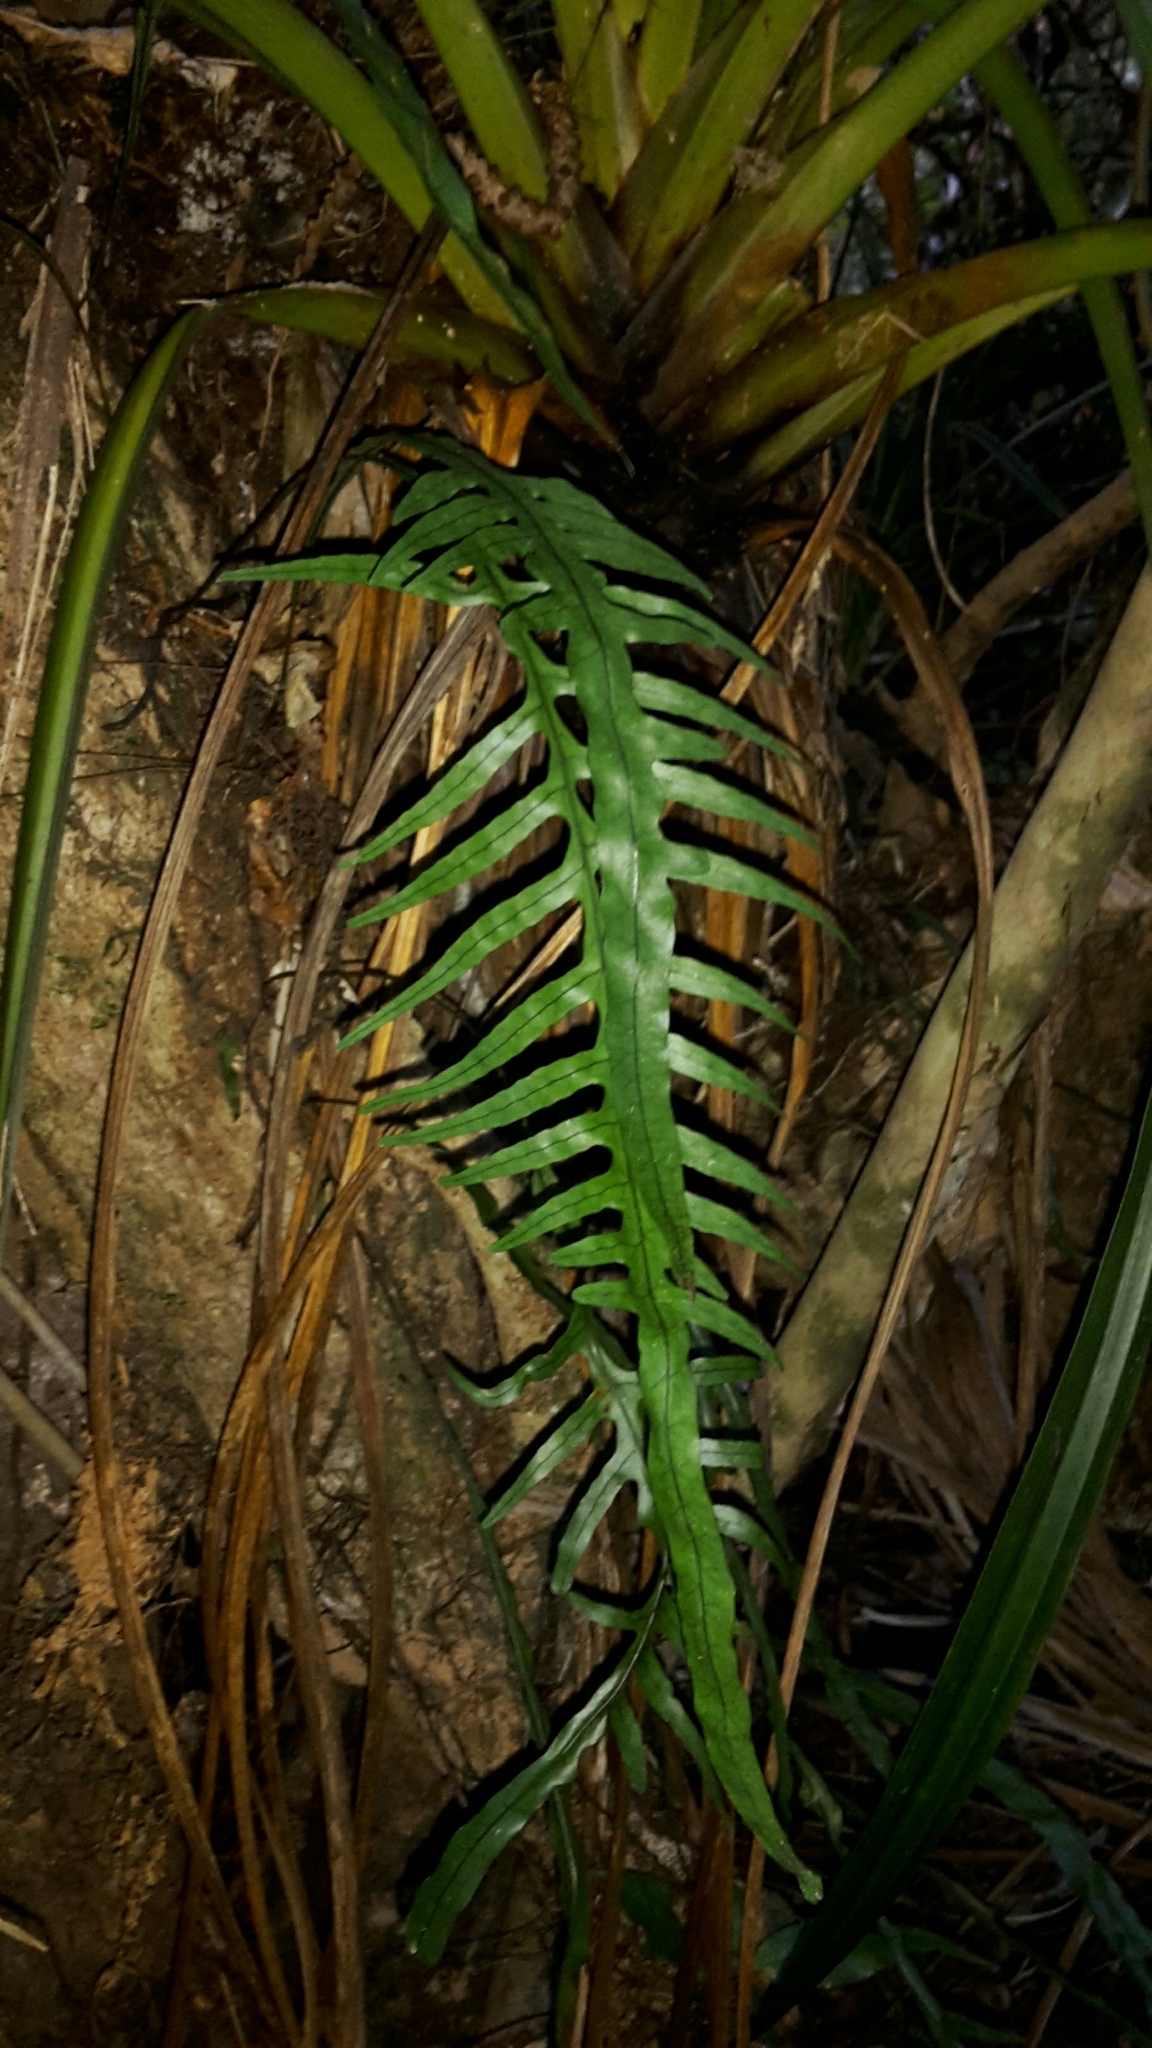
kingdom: Plantae
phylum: Tracheophyta
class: Polypodiopsida
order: Polypodiales
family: Polypodiaceae
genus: Lecanopteris
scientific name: Lecanopteris scandens
